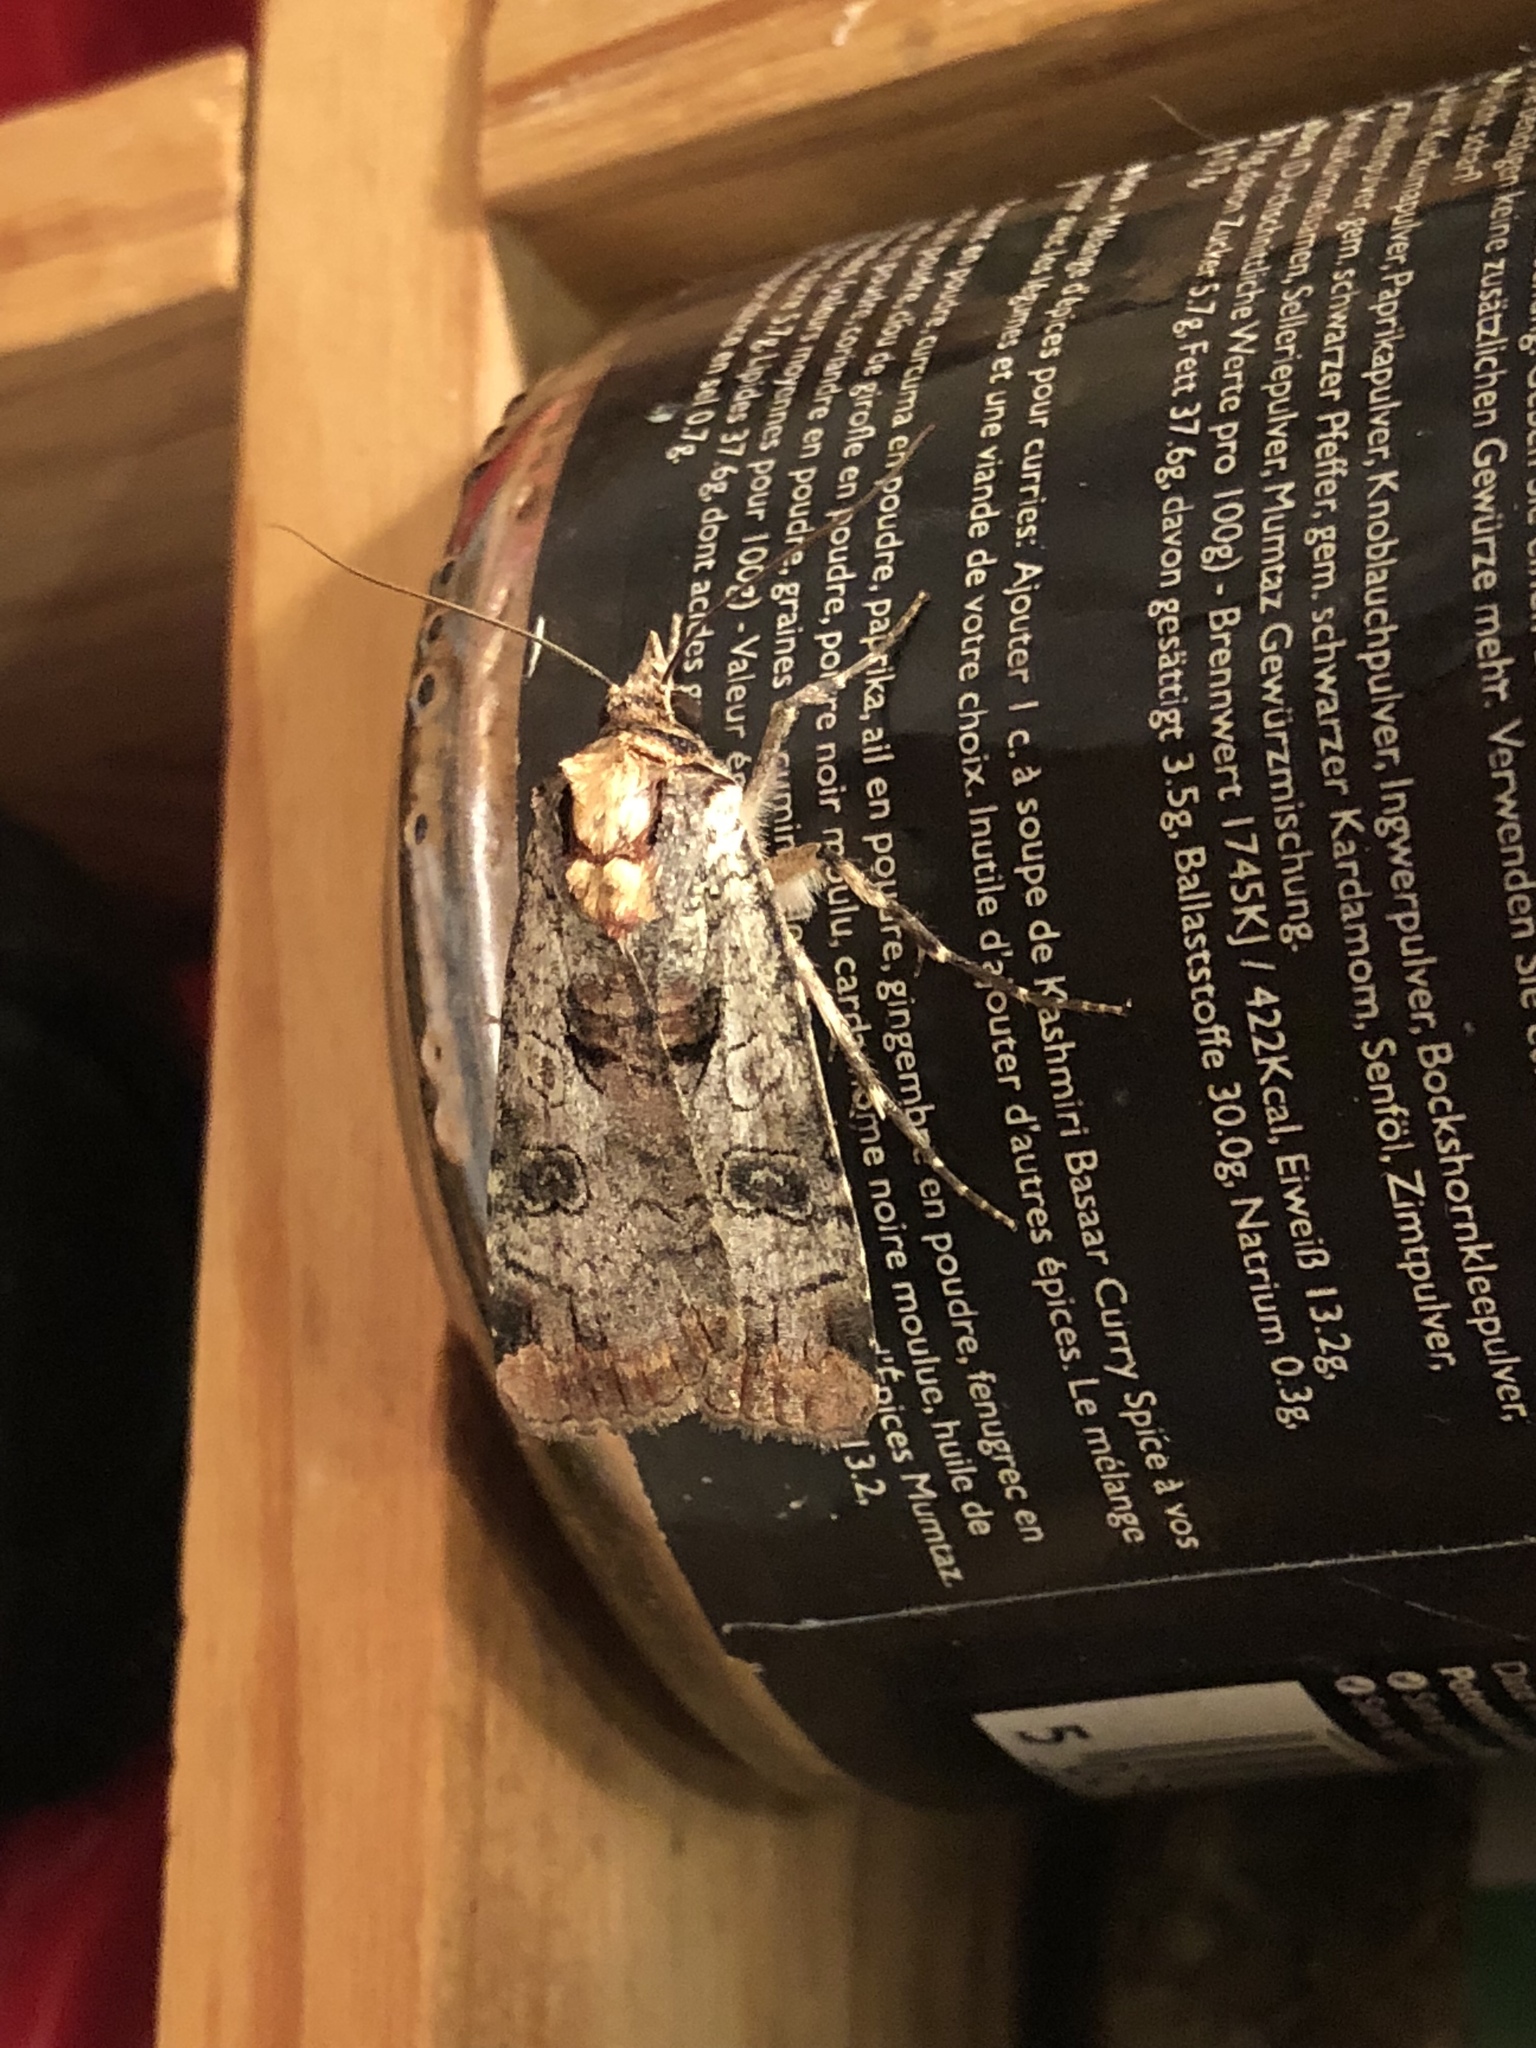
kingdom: Animalia
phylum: Arthropoda
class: Insecta
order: Lepidoptera
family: Noctuidae
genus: Epilecta
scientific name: Epilecta linogrisea
